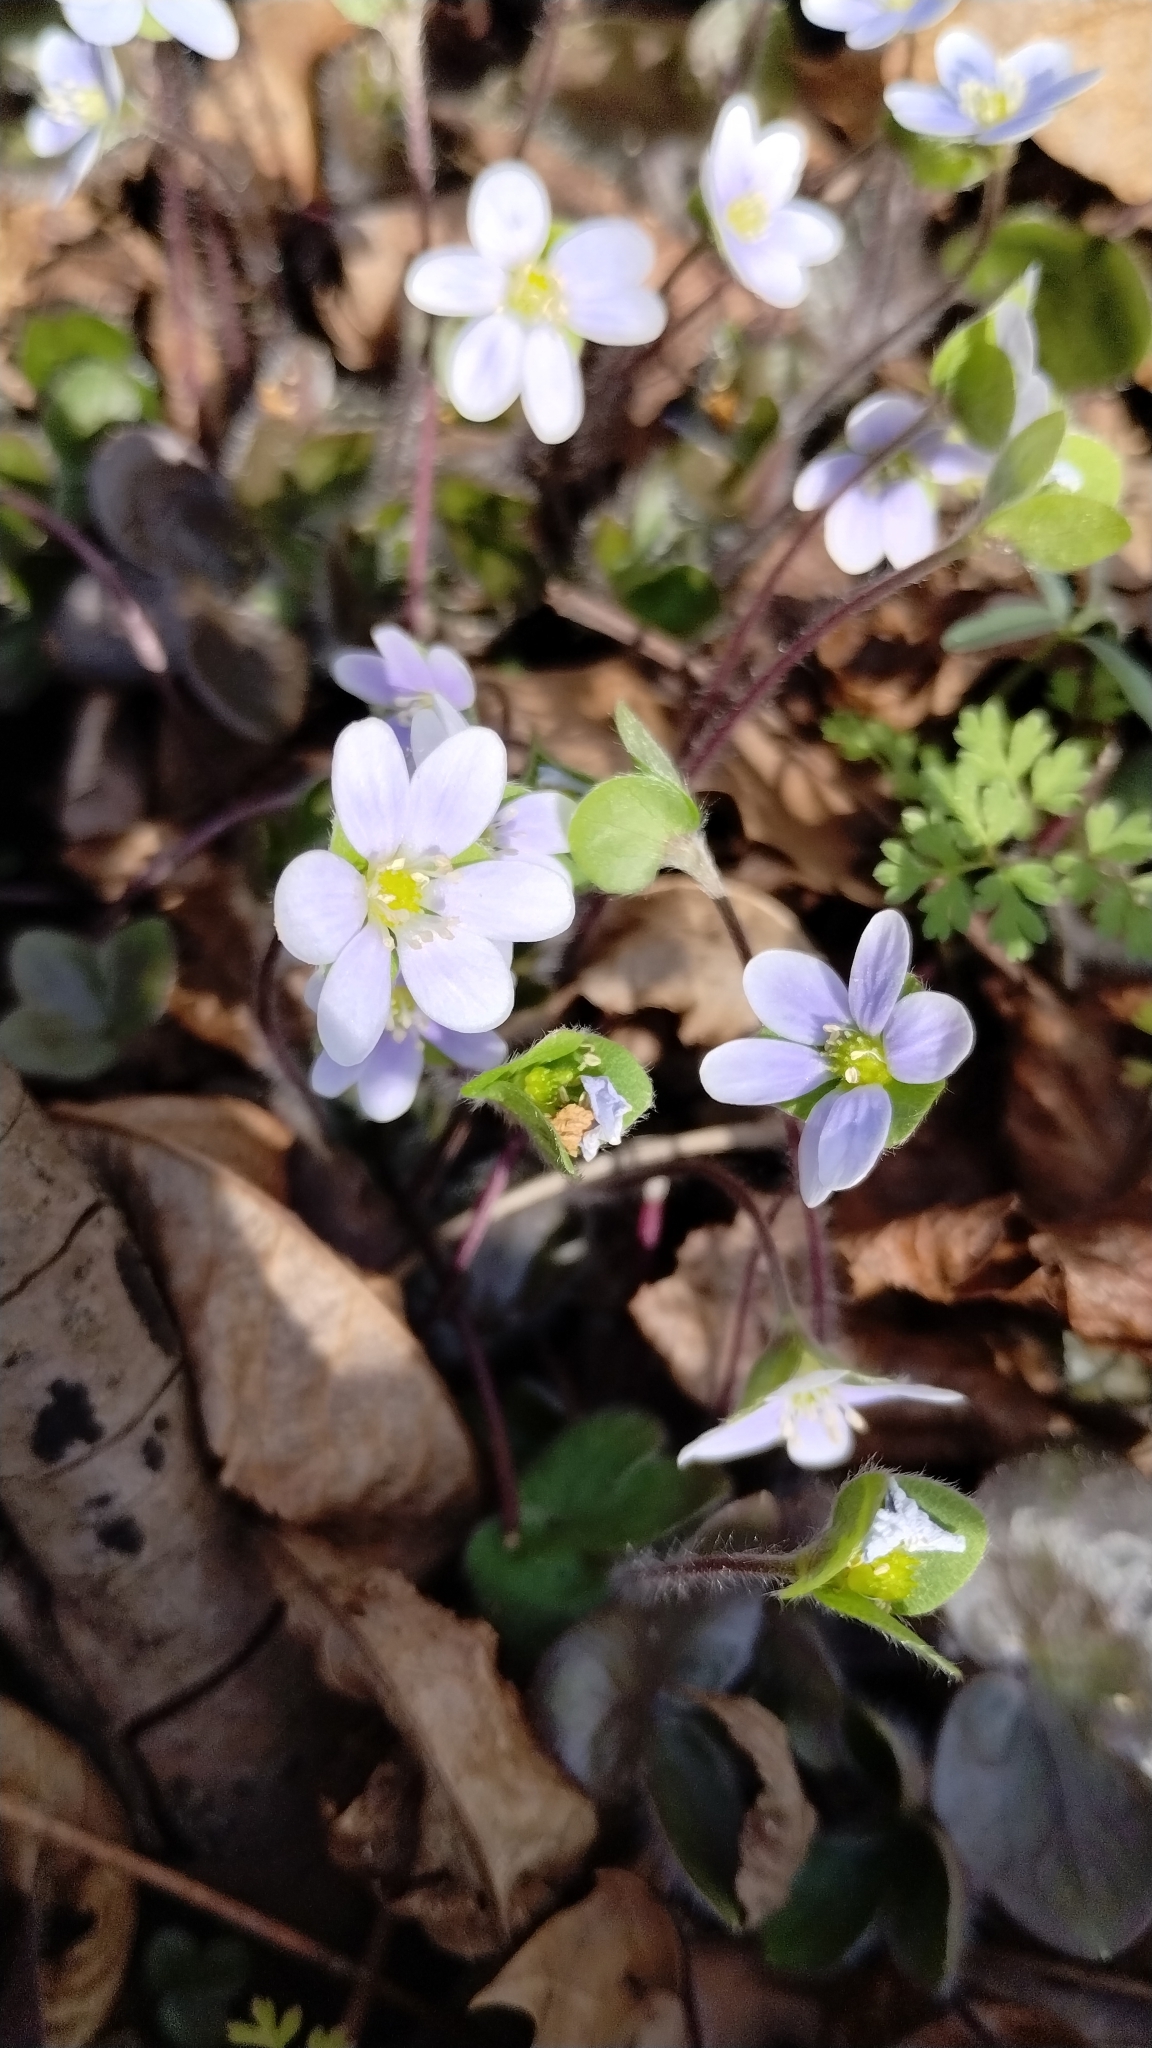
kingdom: Plantae
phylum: Tracheophyta
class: Magnoliopsida
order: Ranunculales
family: Ranunculaceae
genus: Hepatica
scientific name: Hepatica americana
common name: American hepatica
